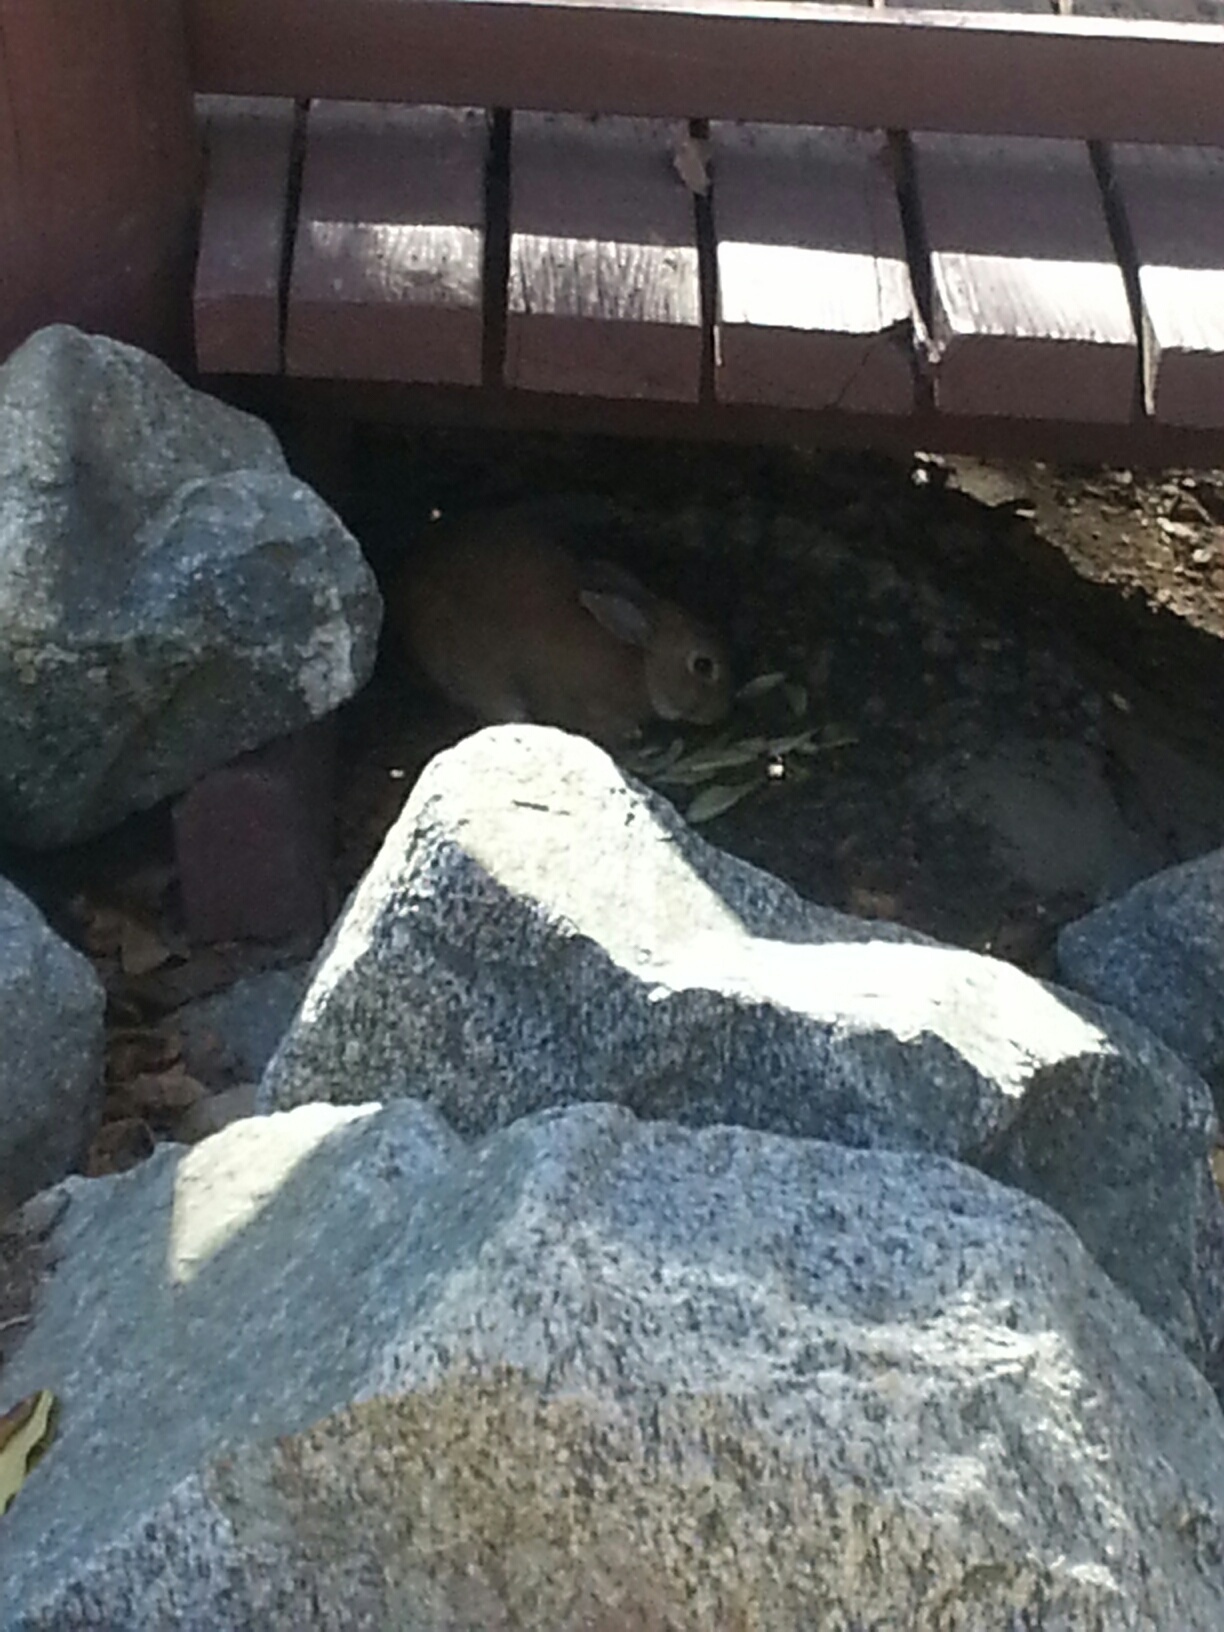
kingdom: Animalia
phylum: Chordata
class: Mammalia
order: Lagomorpha
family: Leporidae
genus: Oryctolagus
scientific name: Oryctolagus cuniculus
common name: European rabbit
